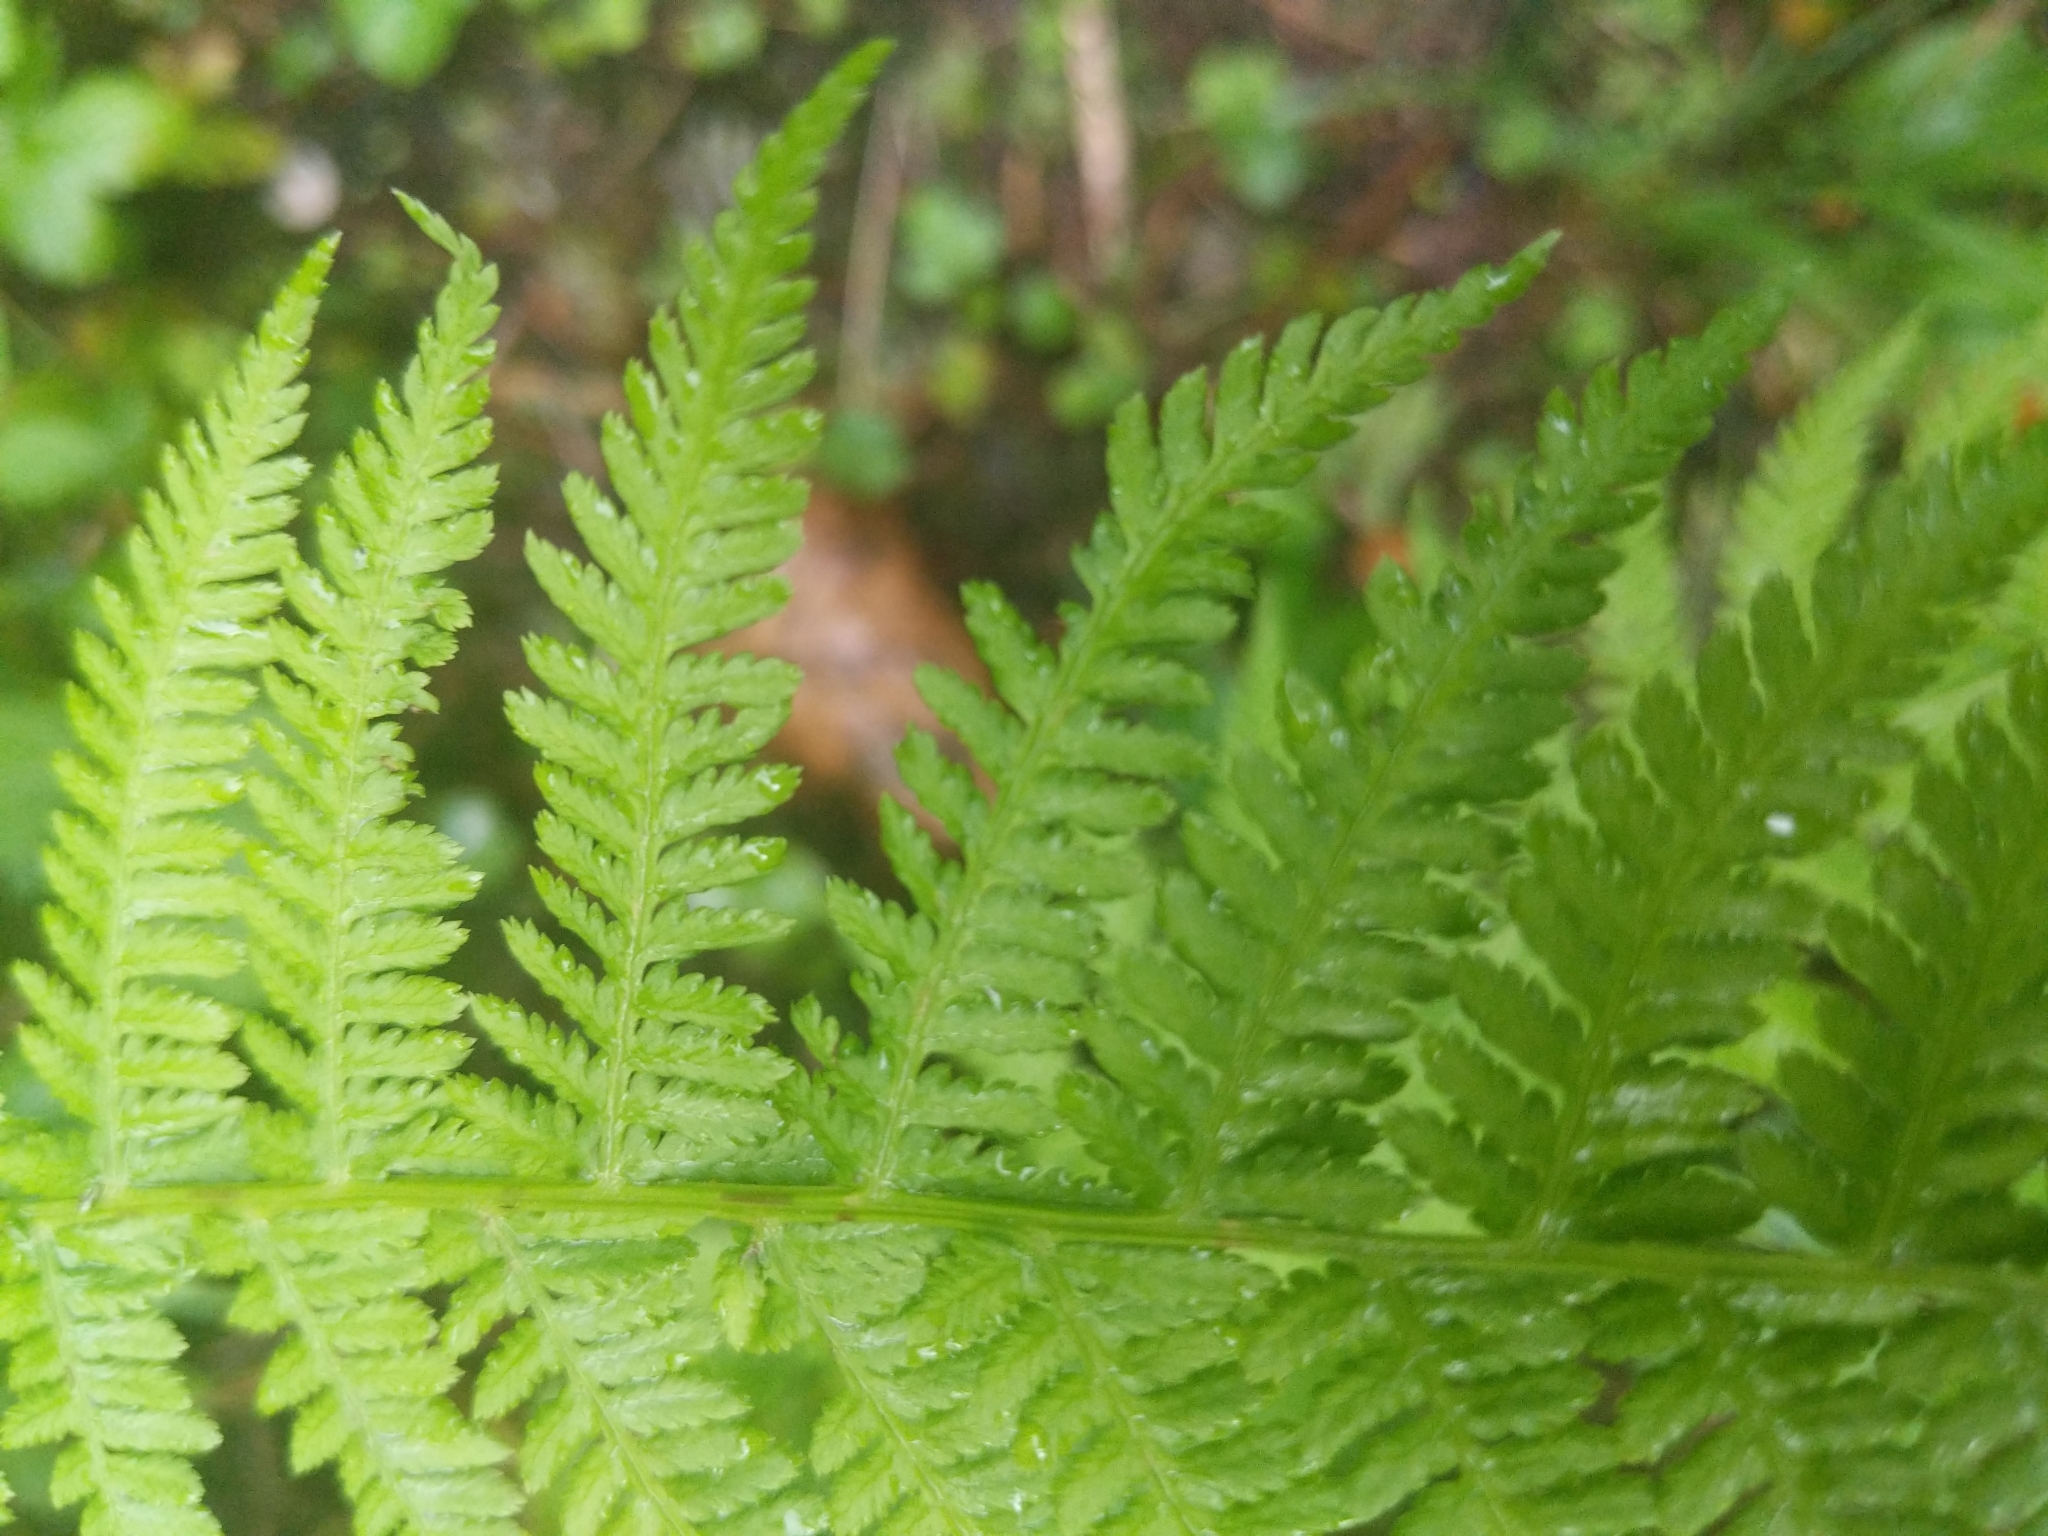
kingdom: Plantae
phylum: Tracheophyta
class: Polypodiopsida
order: Polypodiales
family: Athyriaceae
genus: Athyrium
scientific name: Athyrium filix-femina
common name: Lady fern
